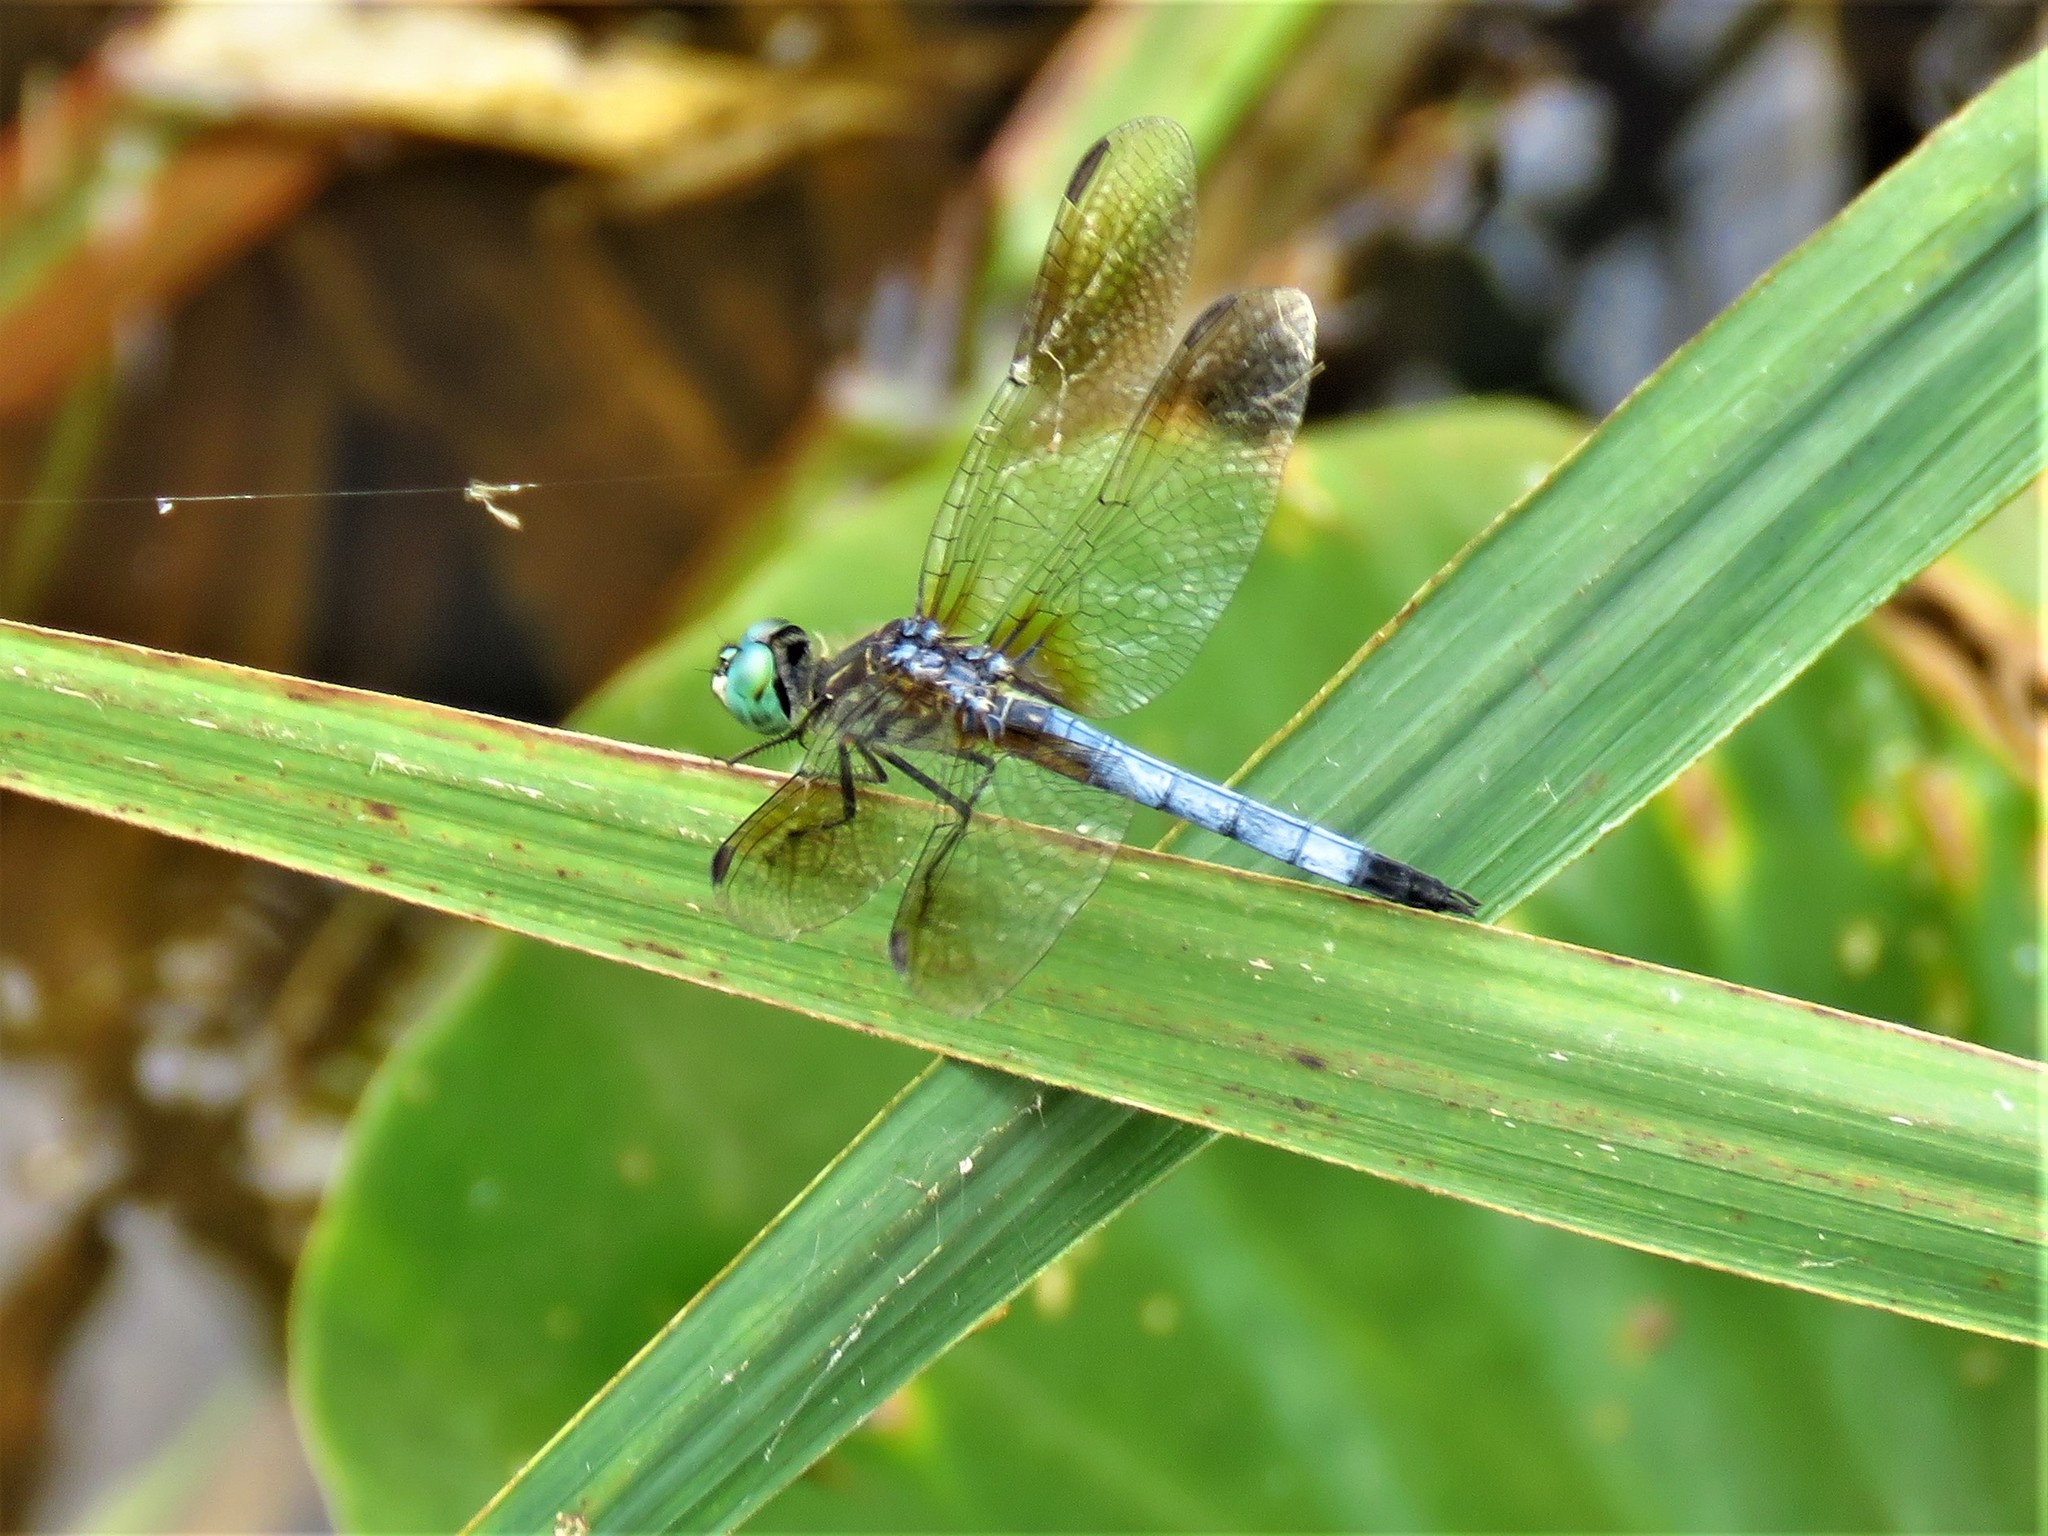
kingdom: Animalia
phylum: Arthropoda
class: Insecta
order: Odonata
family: Libellulidae
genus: Pachydiplax
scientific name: Pachydiplax longipennis
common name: Blue dasher
